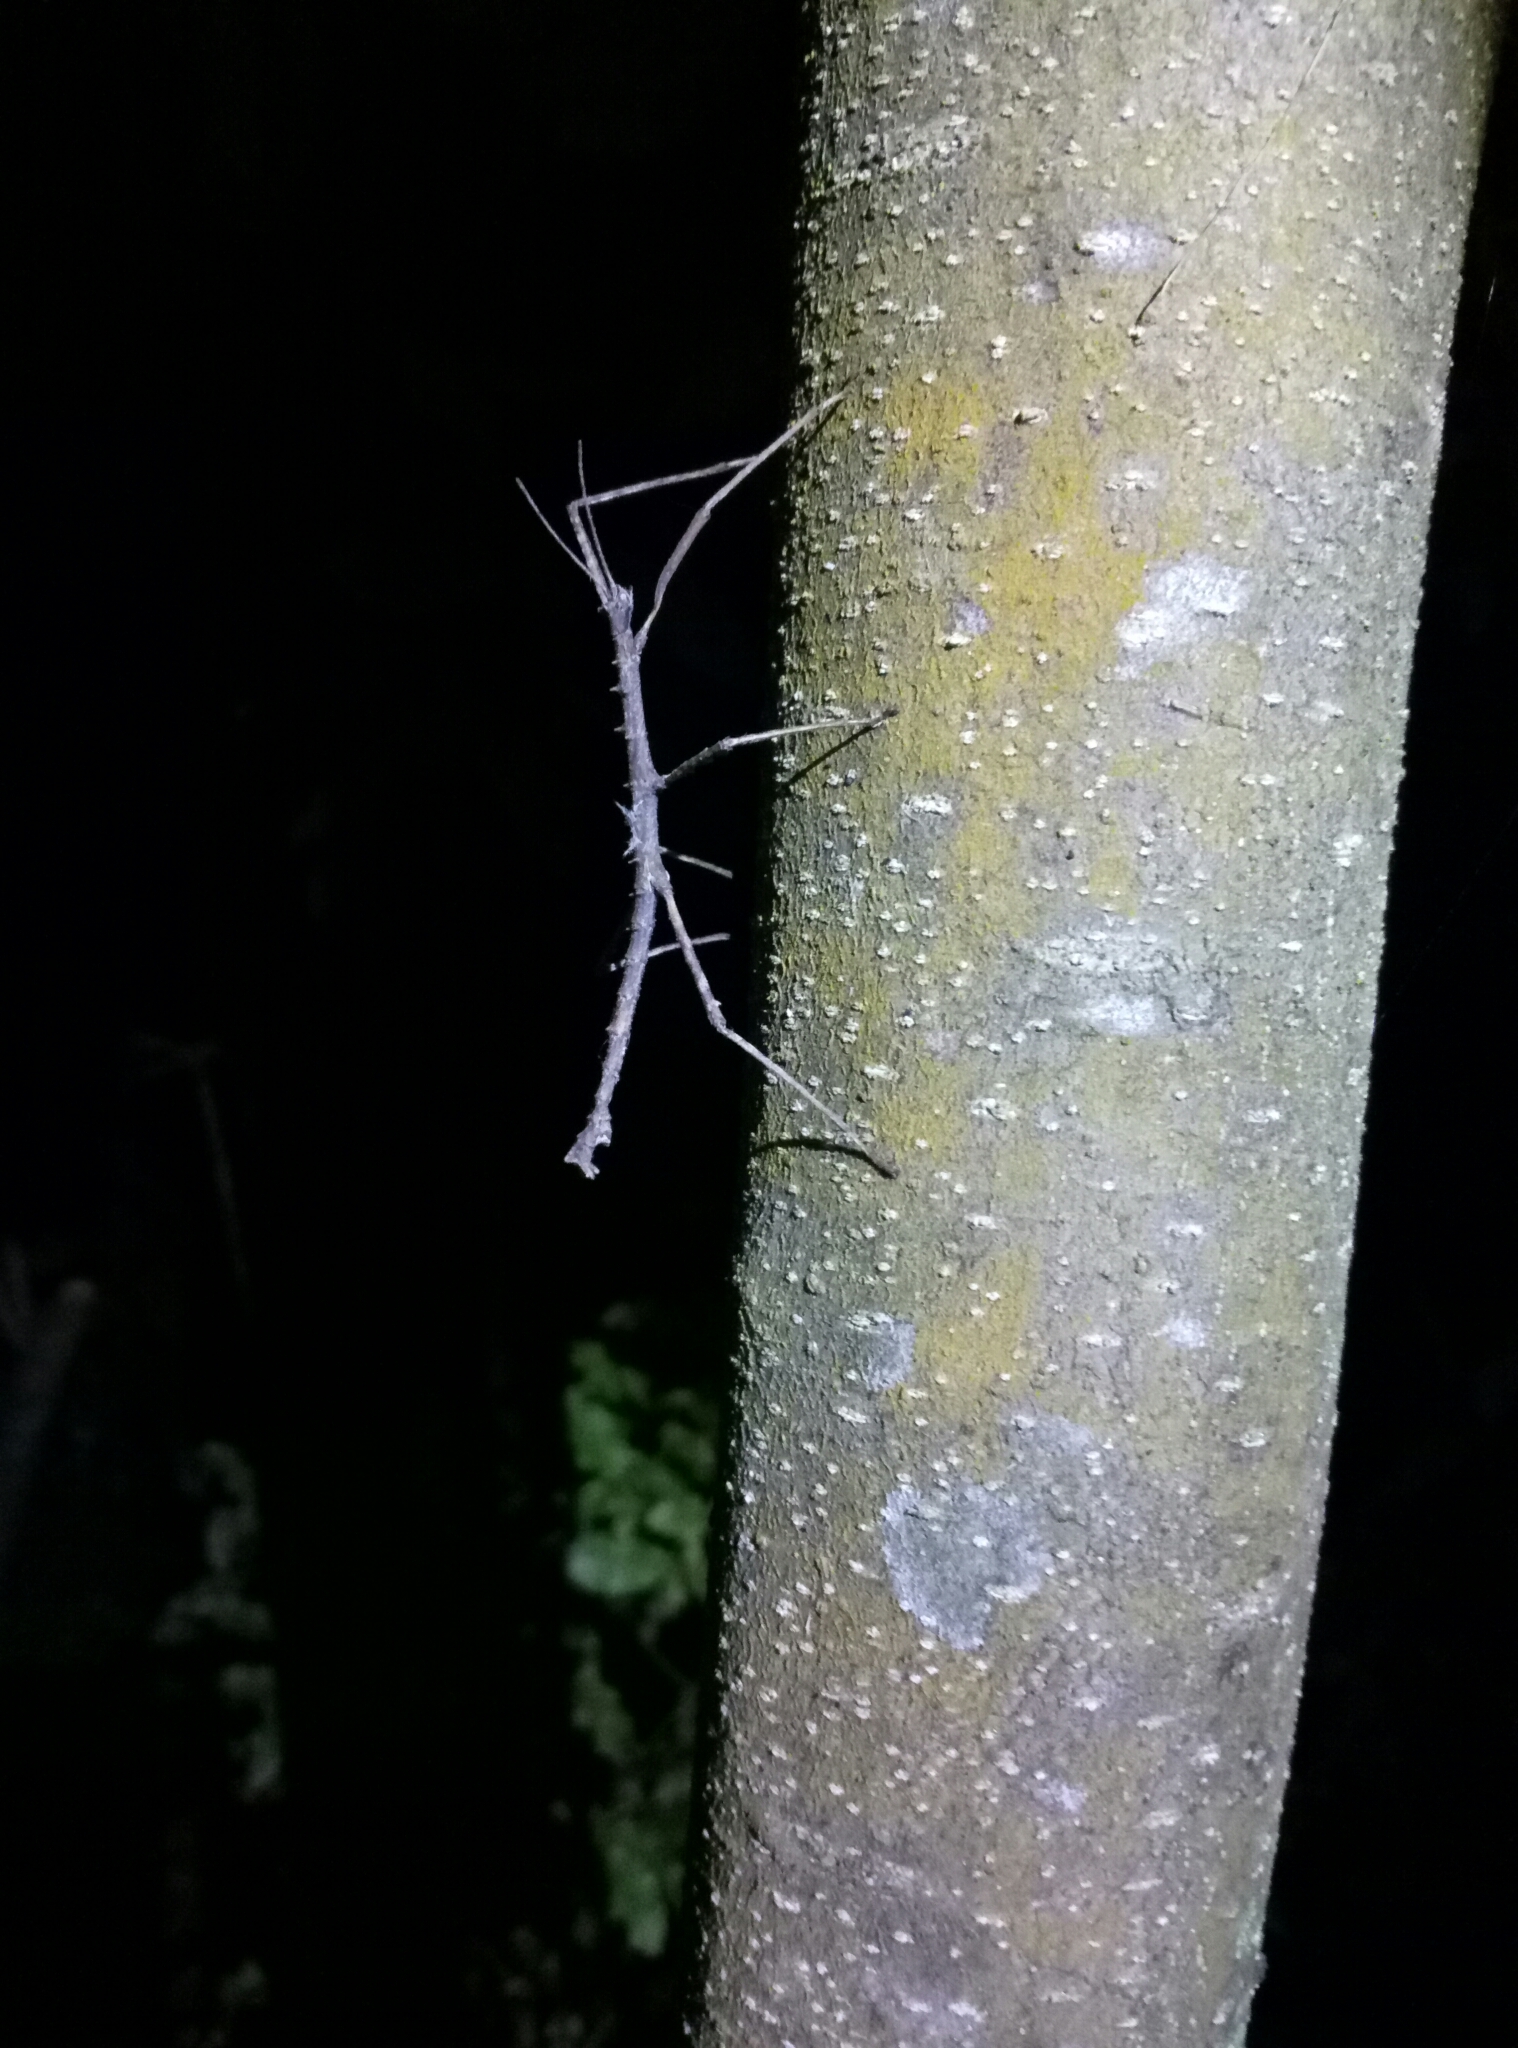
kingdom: Animalia
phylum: Arthropoda
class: Insecta
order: Phasmida
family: Phasmatidae
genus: Micrarchus
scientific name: Micrarchus hystriculeus
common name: The lesser spiny stick insect
